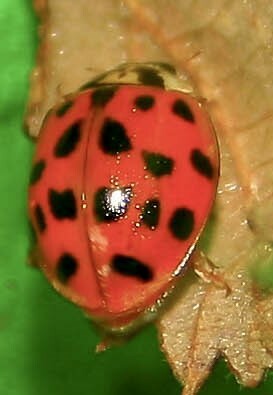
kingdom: Animalia
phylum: Arthropoda
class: Insecta
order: Coleoptera
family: Coccinellidae
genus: Harmonia
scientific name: Harmonia axyridis
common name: Harlequin ladybird
